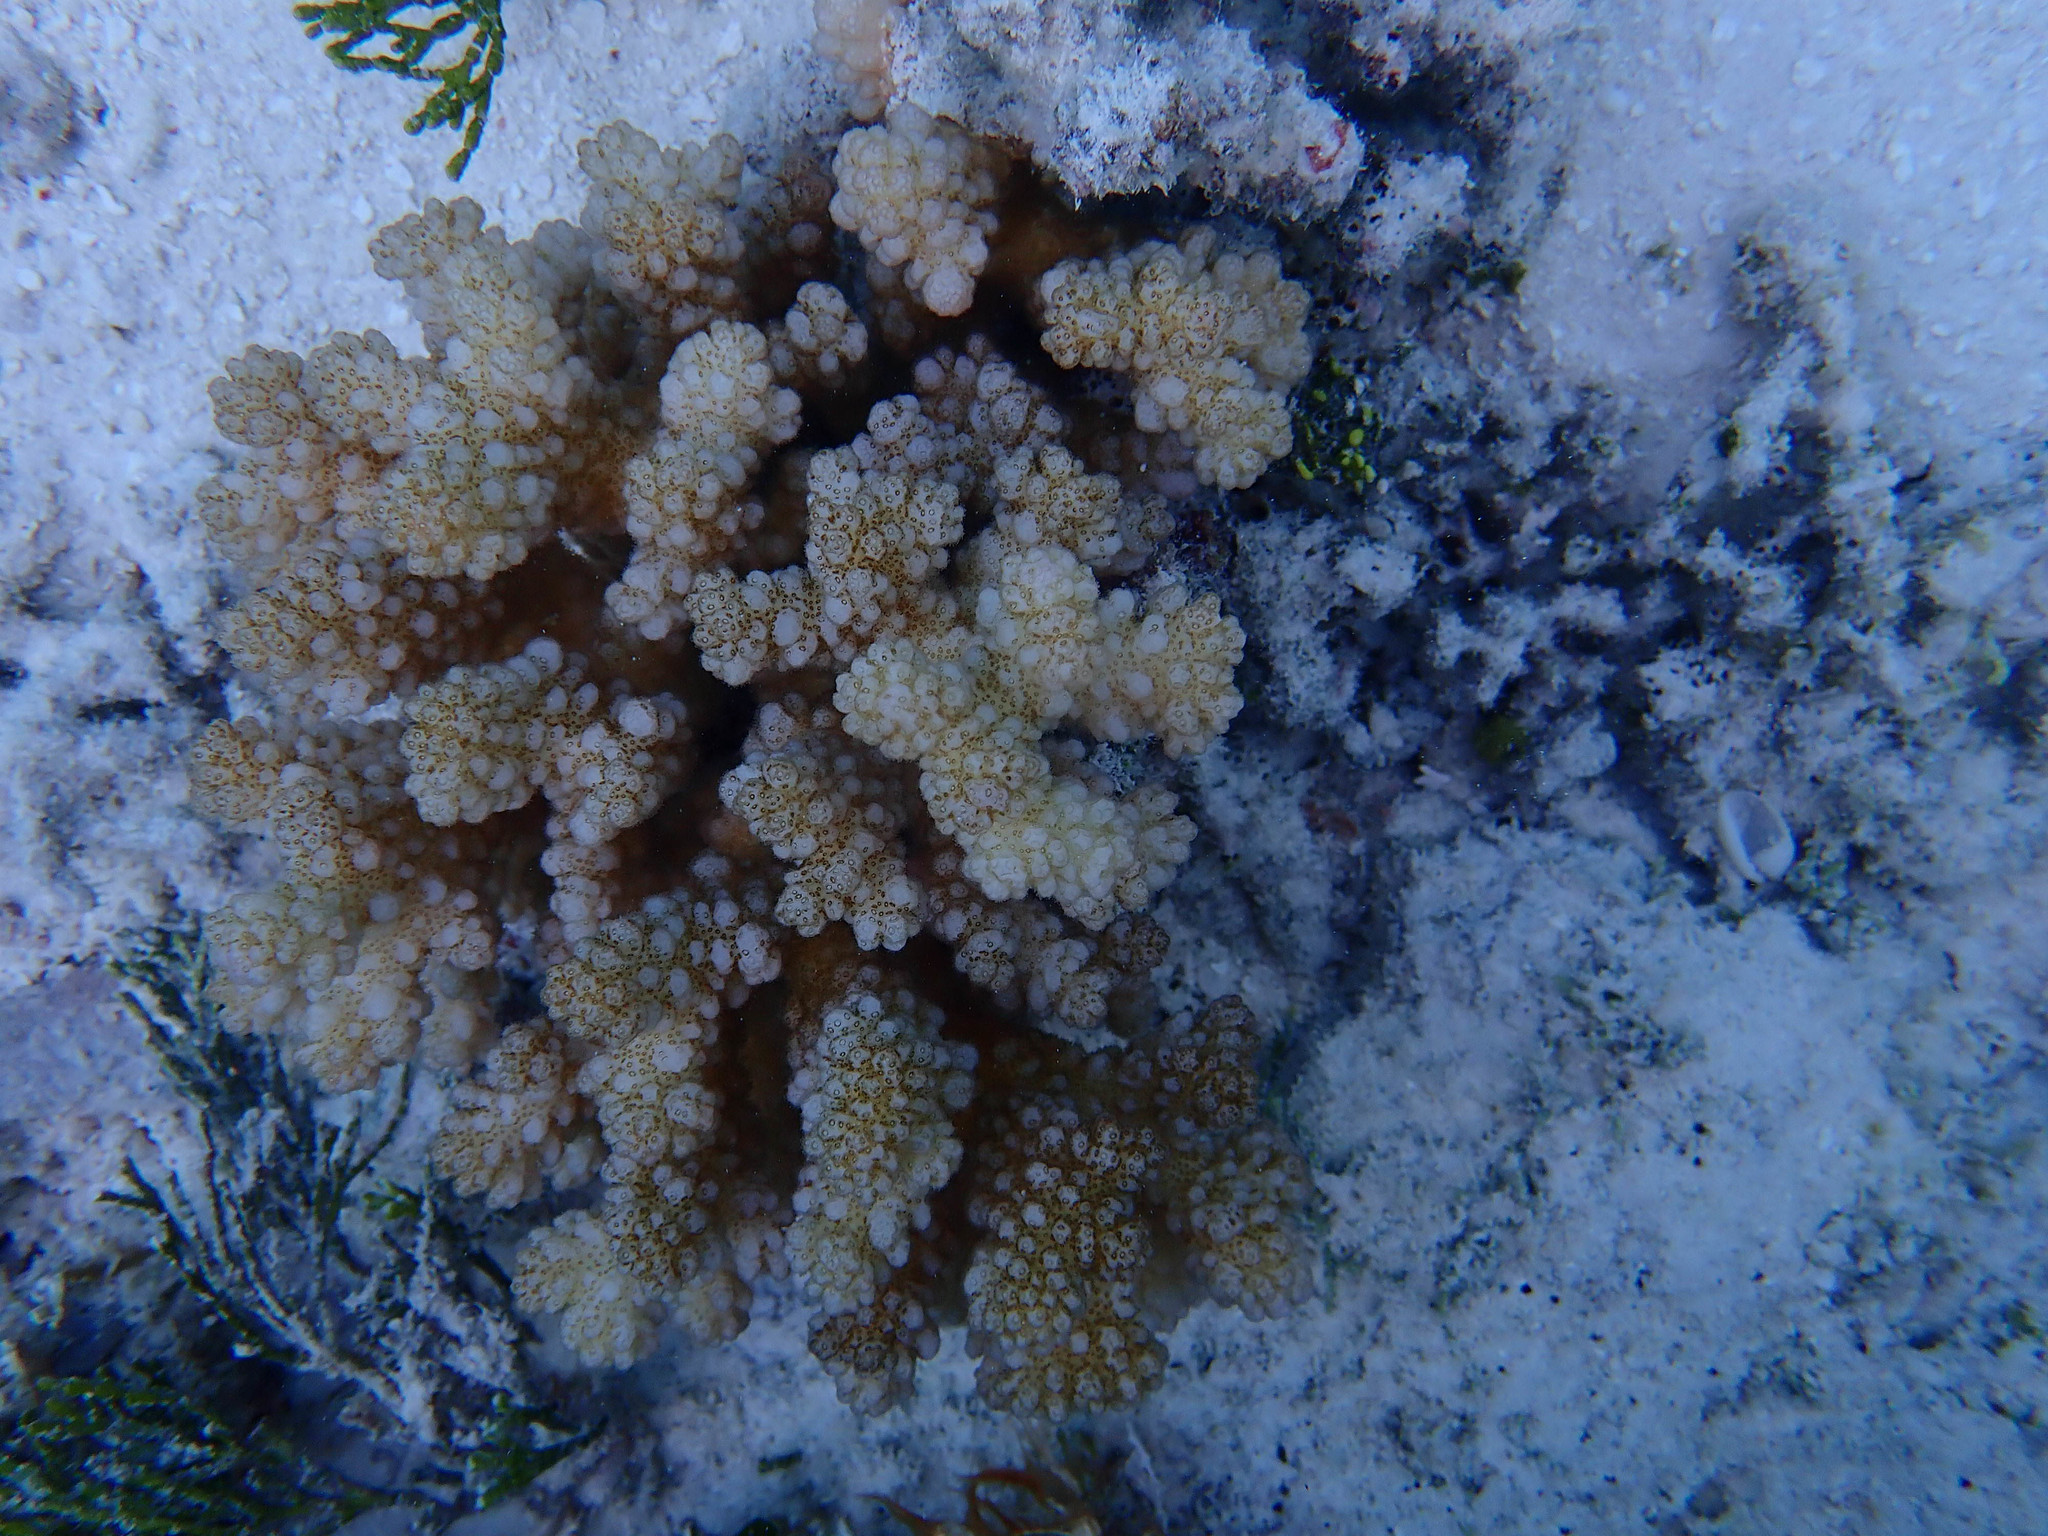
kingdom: Animalia
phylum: Cnidaria
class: Anthozoa
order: Scleractinia
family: Pocilloporidae
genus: Pocillopora
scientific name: Pocillopora verrucosa
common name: Cauliflower coral
